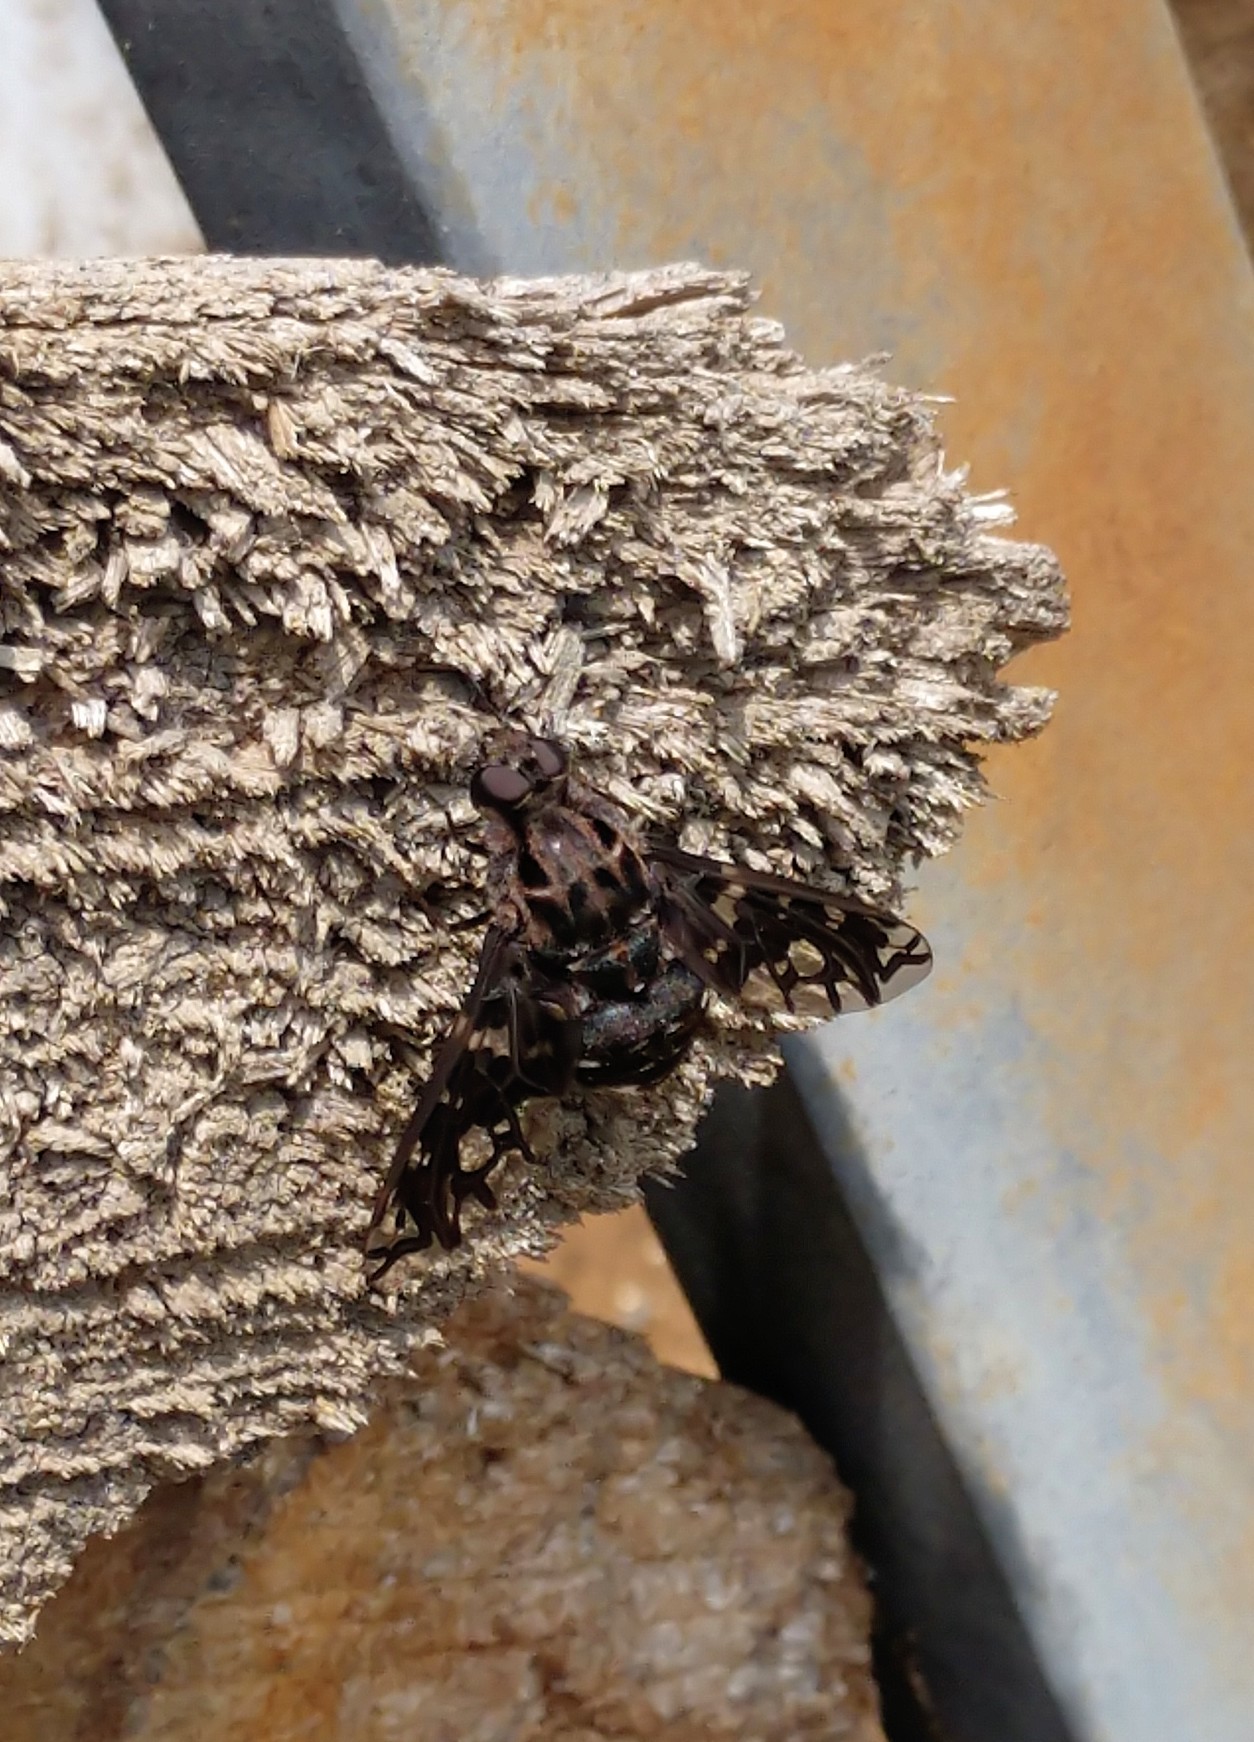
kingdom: Animalia
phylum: Arthropoda
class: Insecta
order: Diptera
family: Bombyliidae
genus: Xenox
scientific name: Xenox tigrinus
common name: Tiger bee fly
